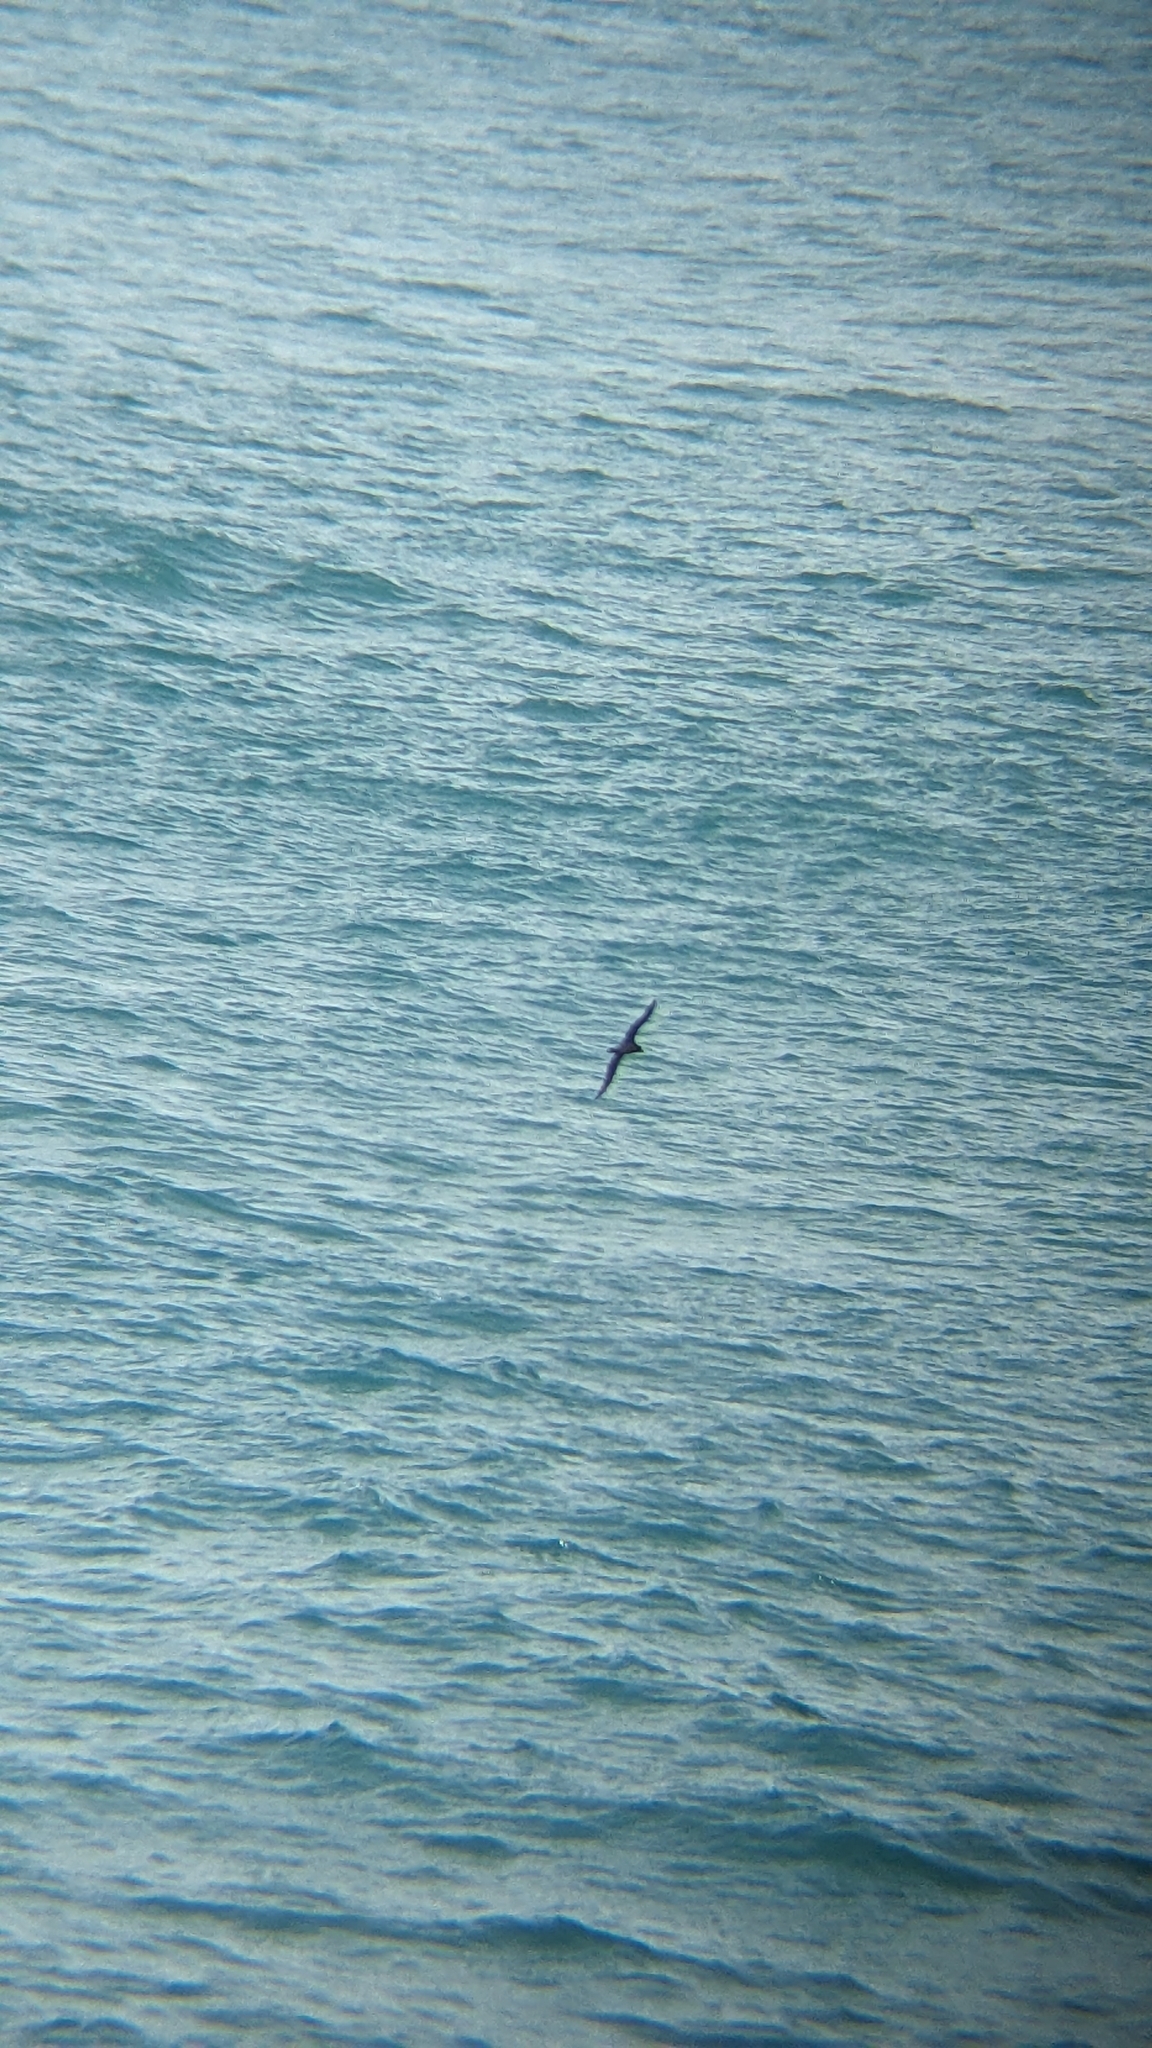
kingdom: Animalia
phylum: Chordata
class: Aves
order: Procellariiformes
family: Procellariidae
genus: Puffinus
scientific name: Puffinus carneipes
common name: Flesh-footed shearwater
